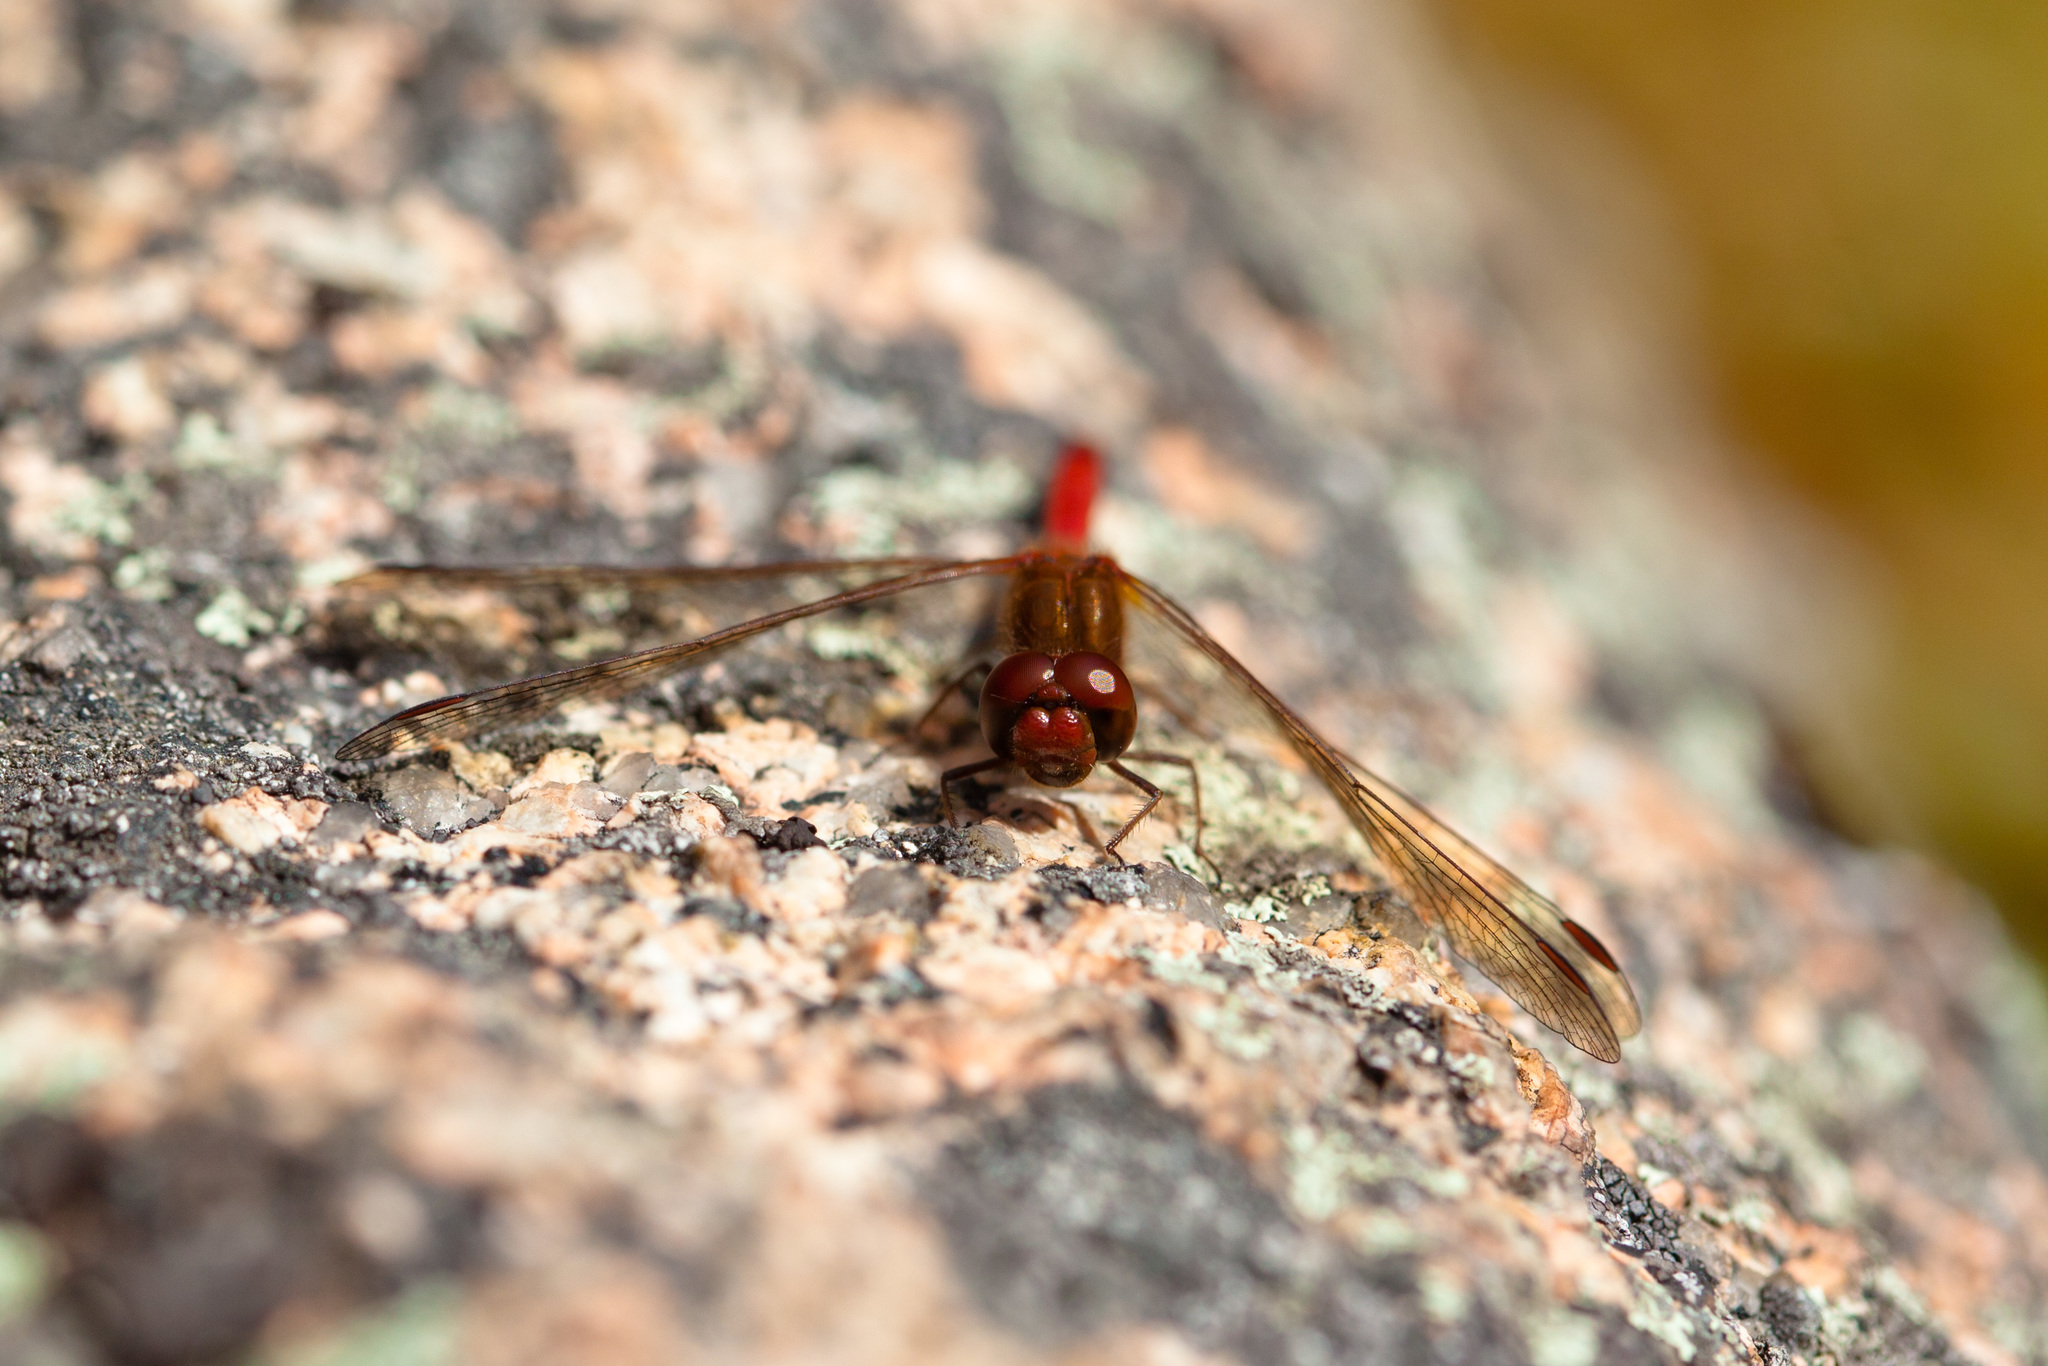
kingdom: Animalia
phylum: Arthropoda
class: Insecta
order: Odonata
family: Libellulidae
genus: Sympetrum
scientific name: Sympetrum vicinum
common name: Autumn meadowhawk
